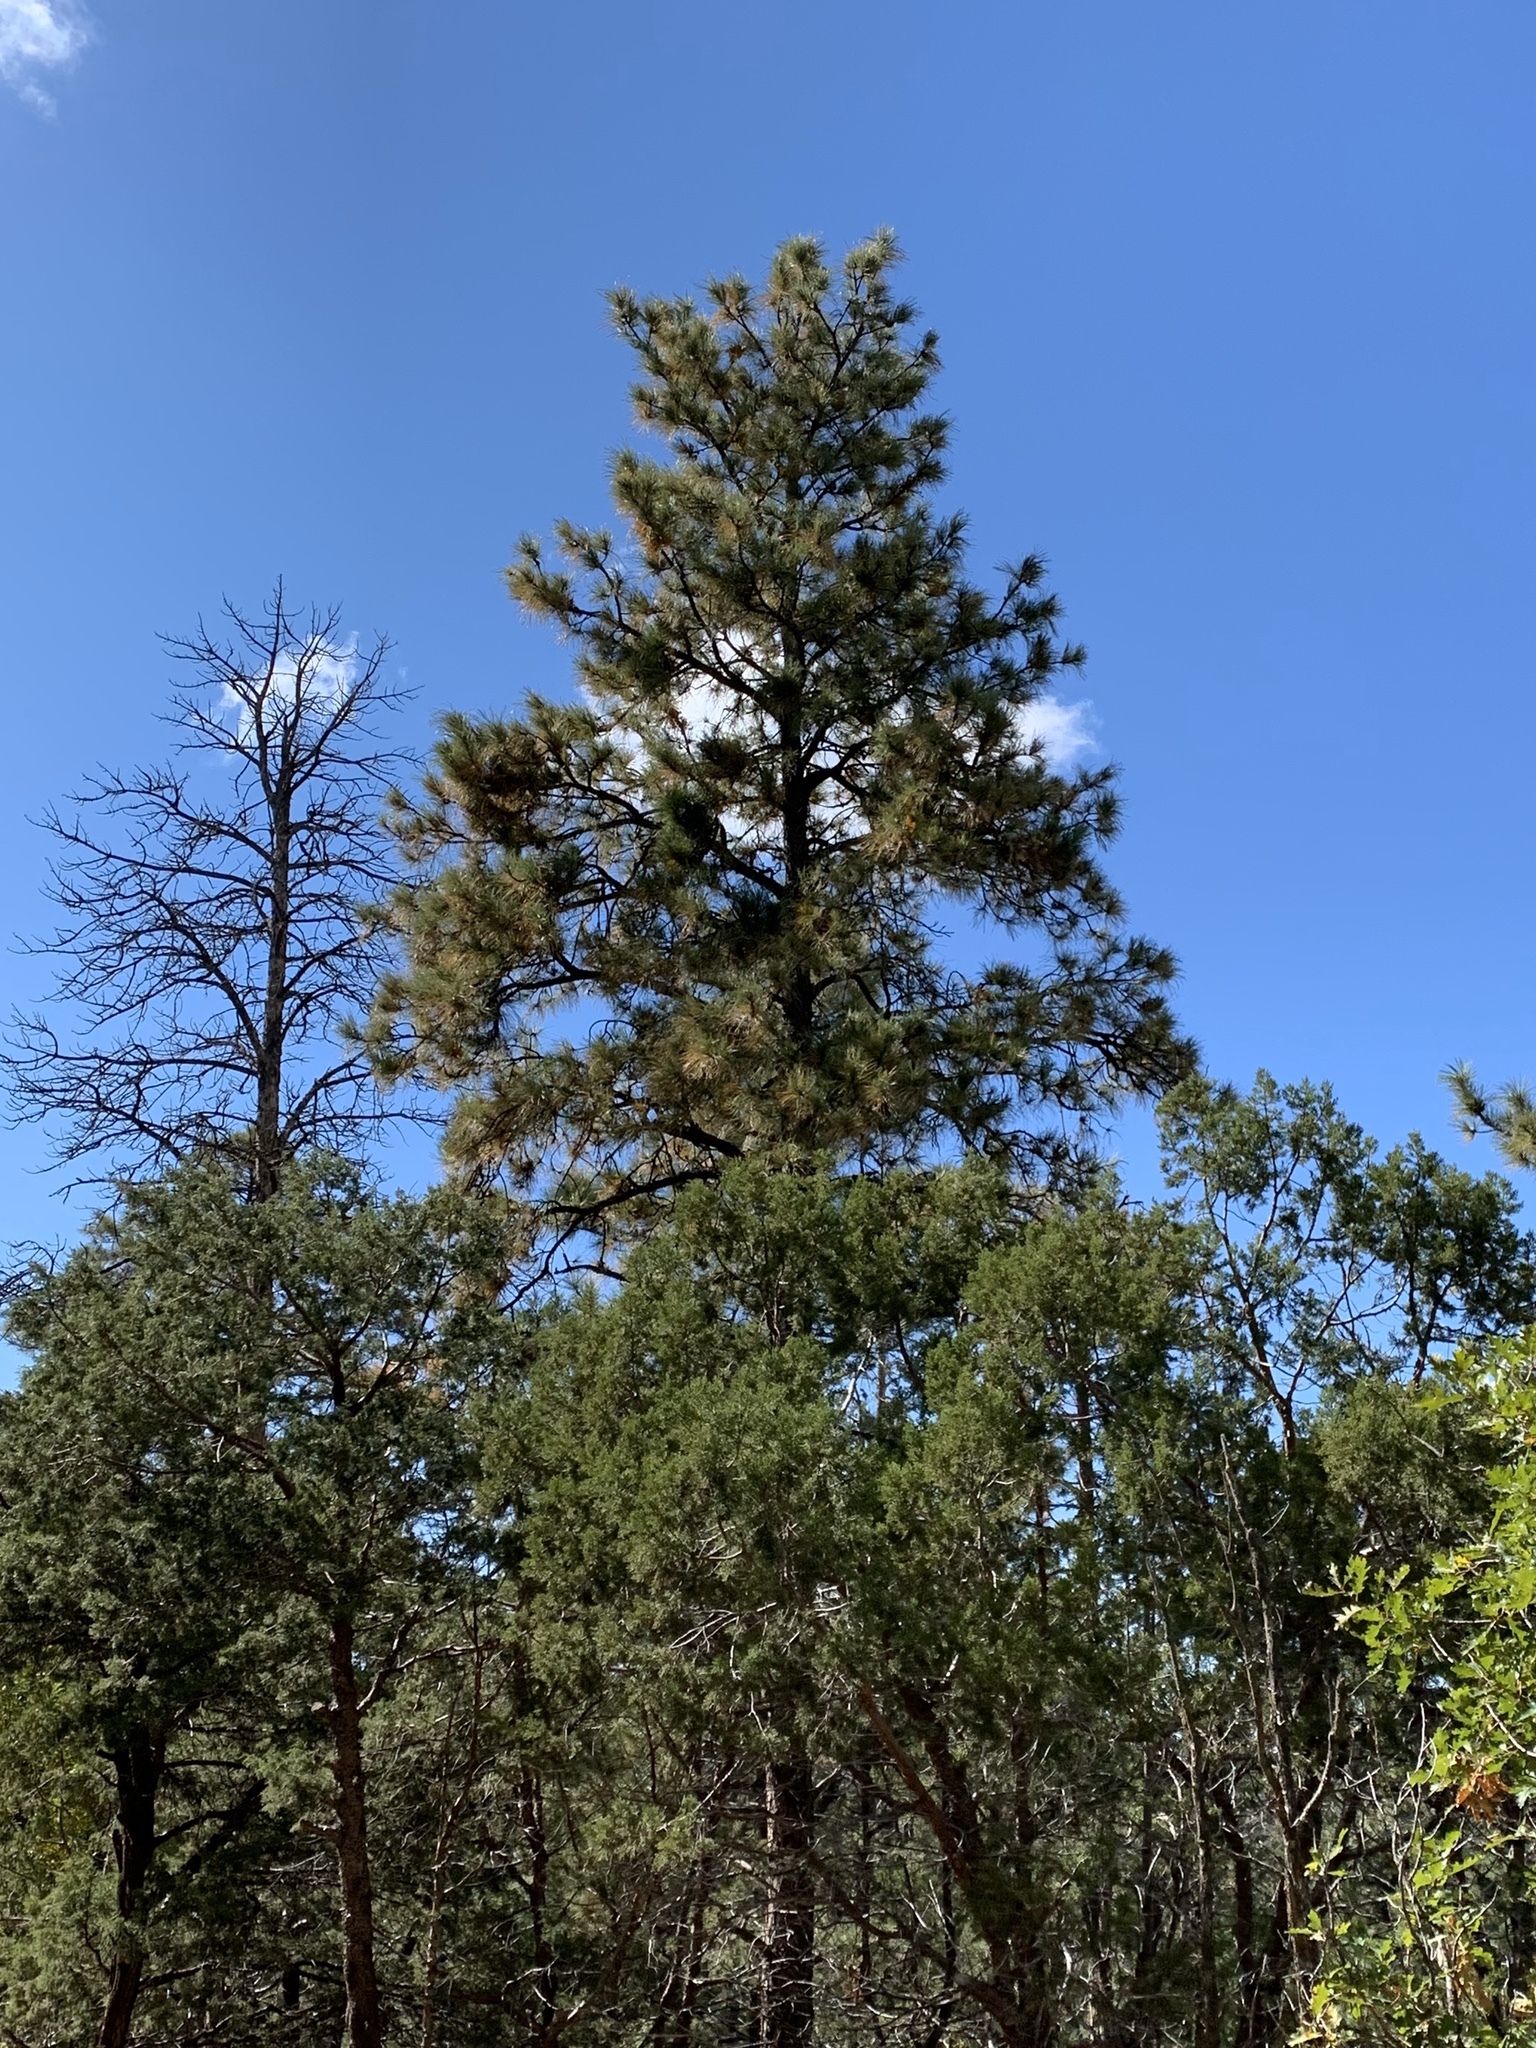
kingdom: Plantae
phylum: Tracheophyta
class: Pinopsida
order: Pinales
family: Pinaceae
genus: Pinus
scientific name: Pinus ponderosa
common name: Western yellow-pine
